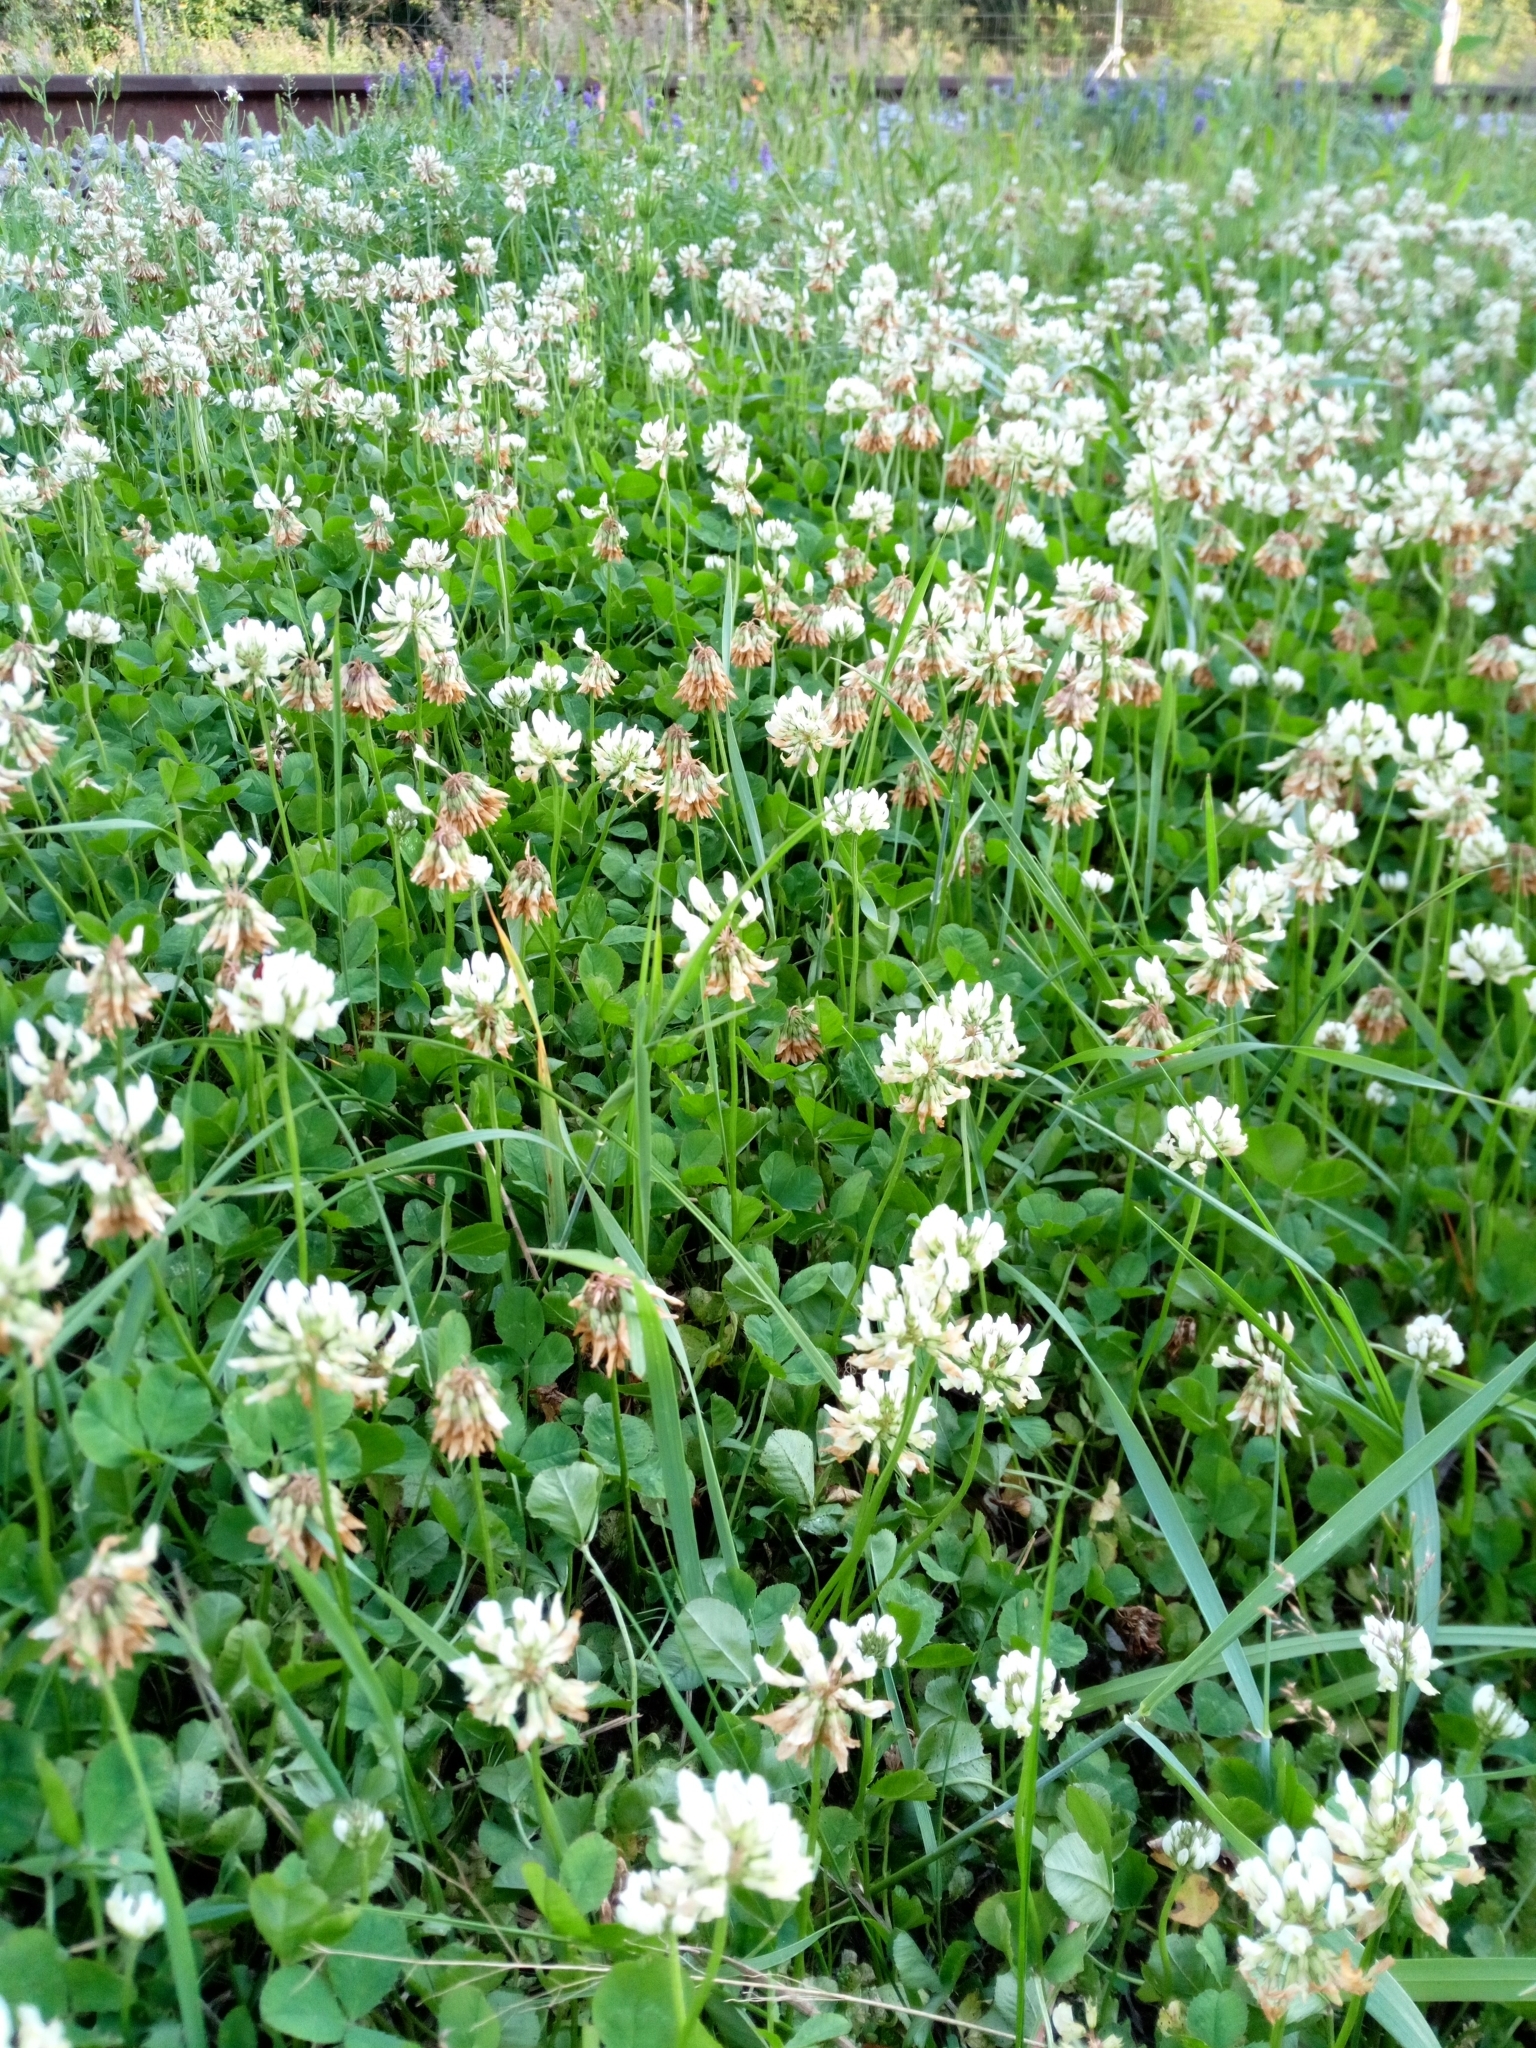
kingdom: Plantae
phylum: Tracheophyta
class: Magnoliopsida
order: Fabales
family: Fabaceae
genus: Trifolium
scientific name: Trifolium repens
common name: White clover
